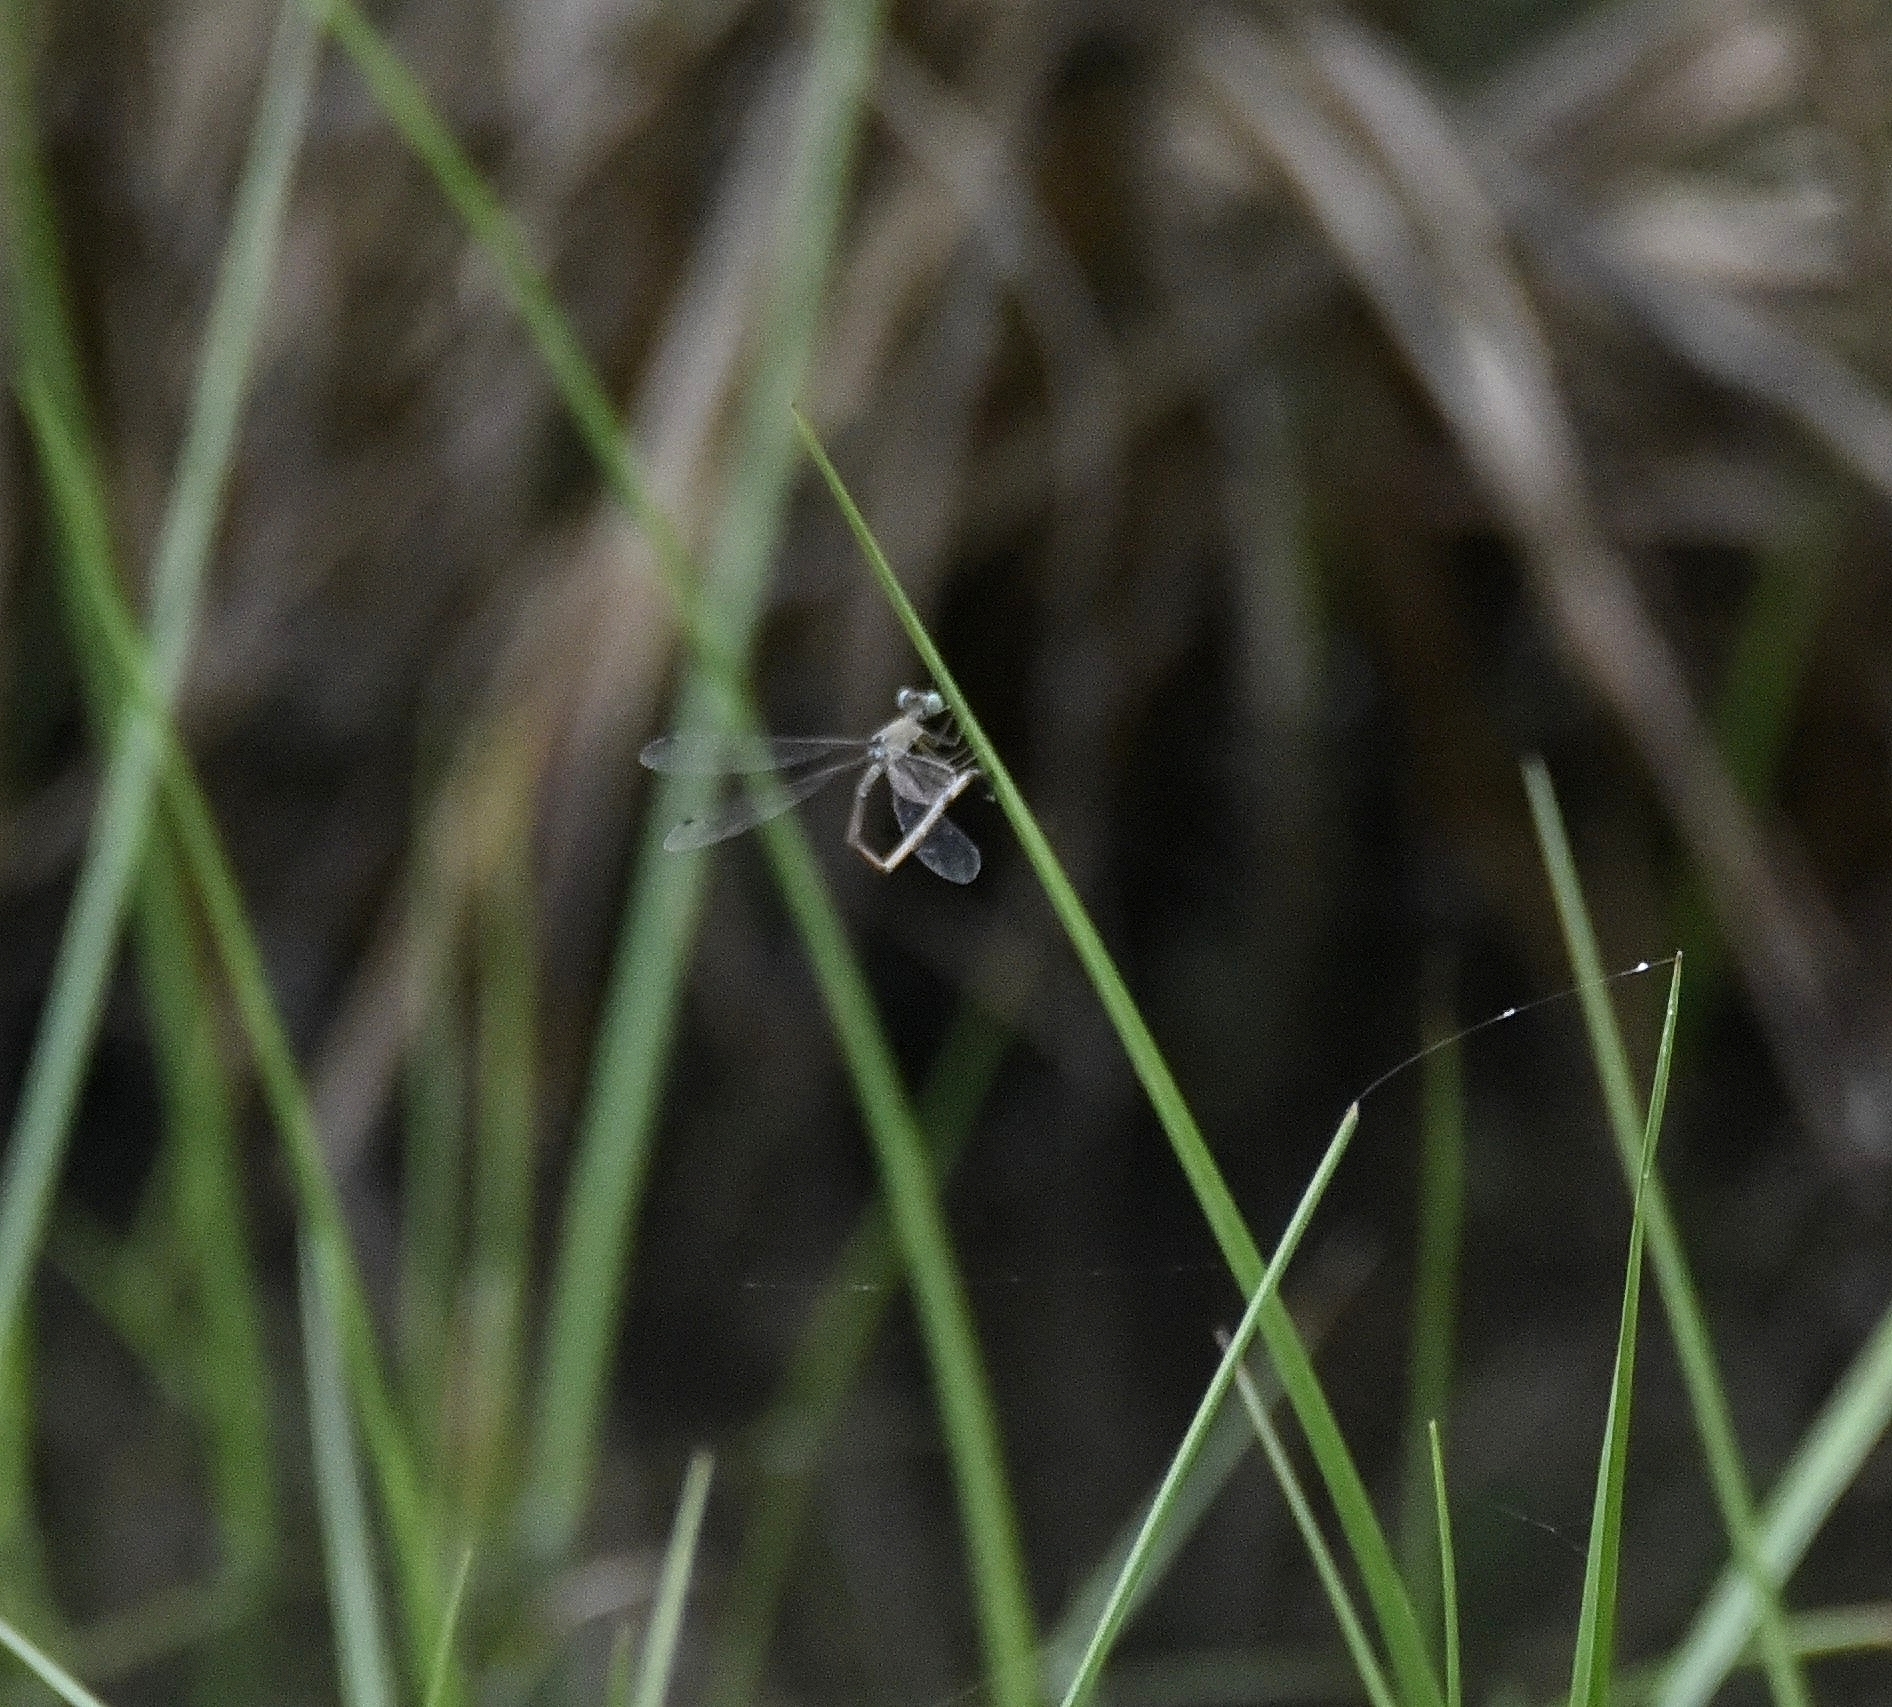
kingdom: Animalia
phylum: Arthropoda
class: Insecta
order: Odonata
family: Lestidae
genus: Platylestes
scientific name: Platylestes platystylus
